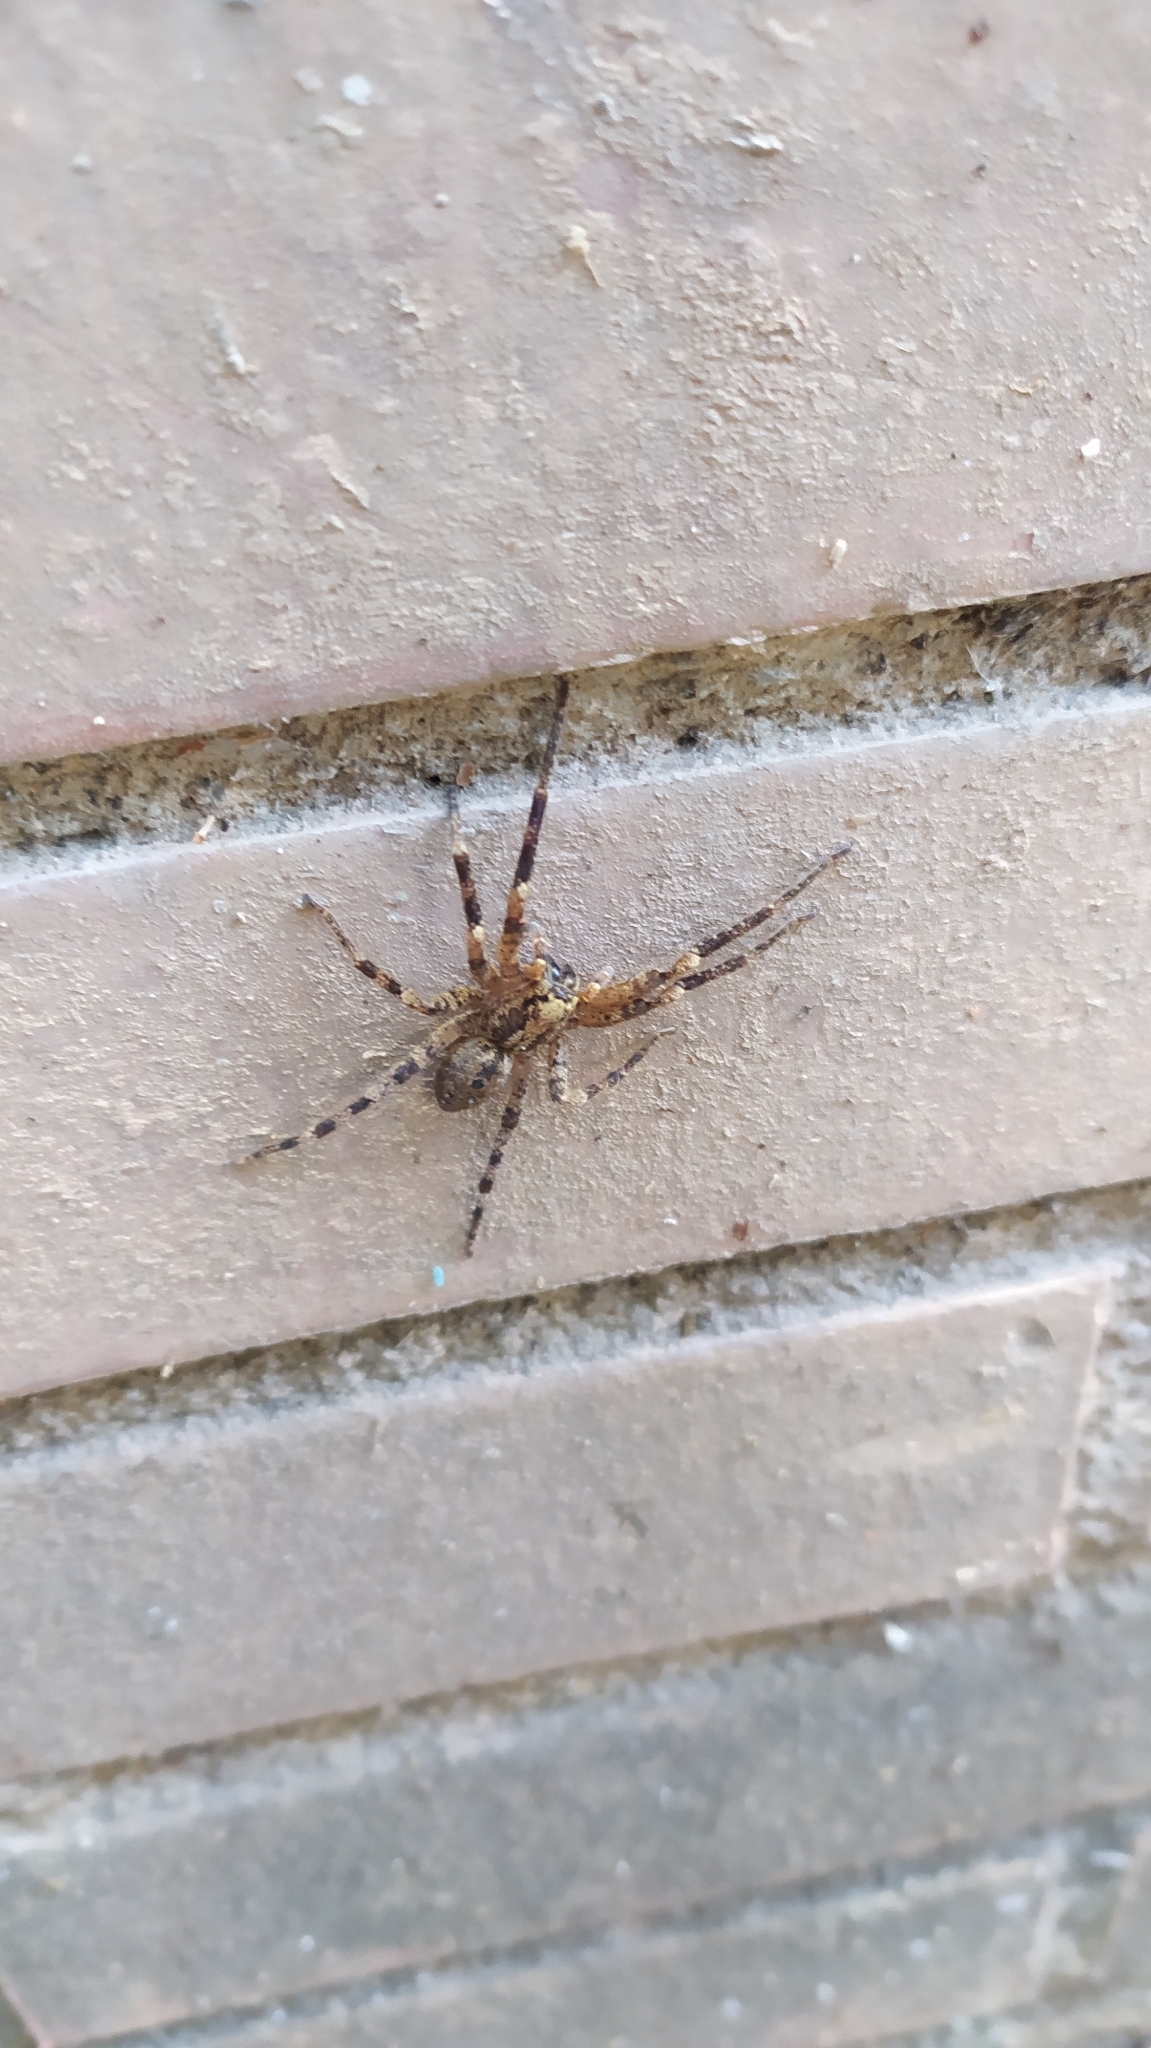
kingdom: Animalia
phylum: Arthropoda
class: Arachnida
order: Araneae
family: Zoropsidae
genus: Zoropsis
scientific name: Zoropsis spinimana
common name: Zoropsid spider
